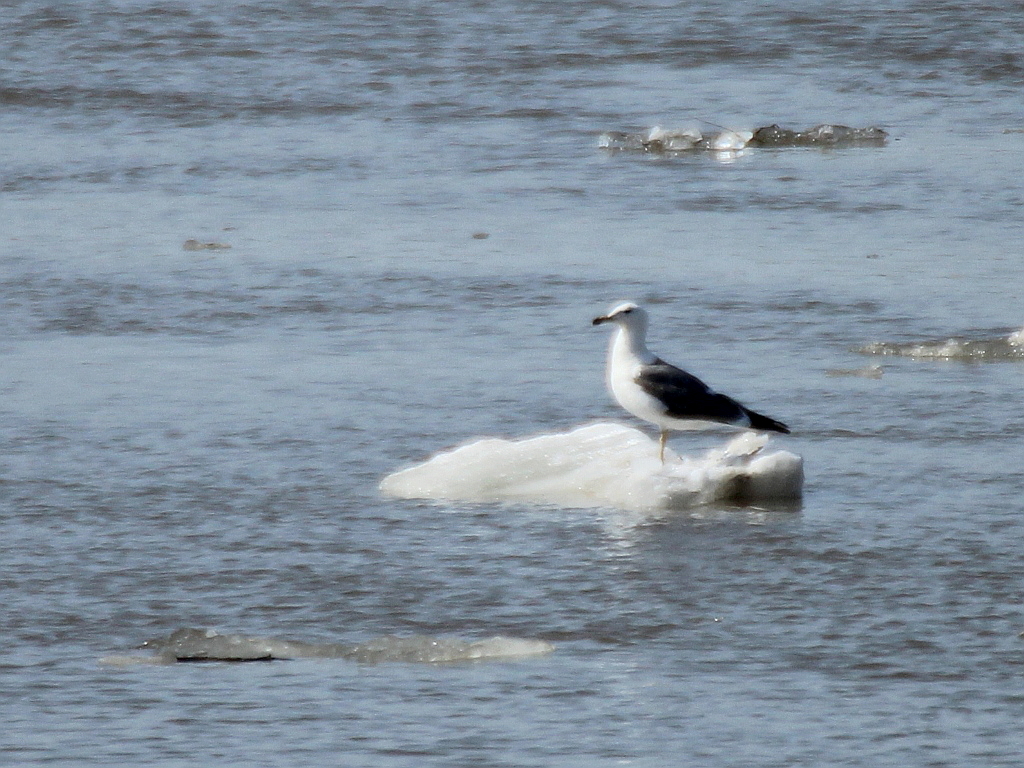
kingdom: Animalia
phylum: Chordata
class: Aves
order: Charadriiformes
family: Laridae
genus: Larus
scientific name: Larus fuscus
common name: Lesser black-backed gull
